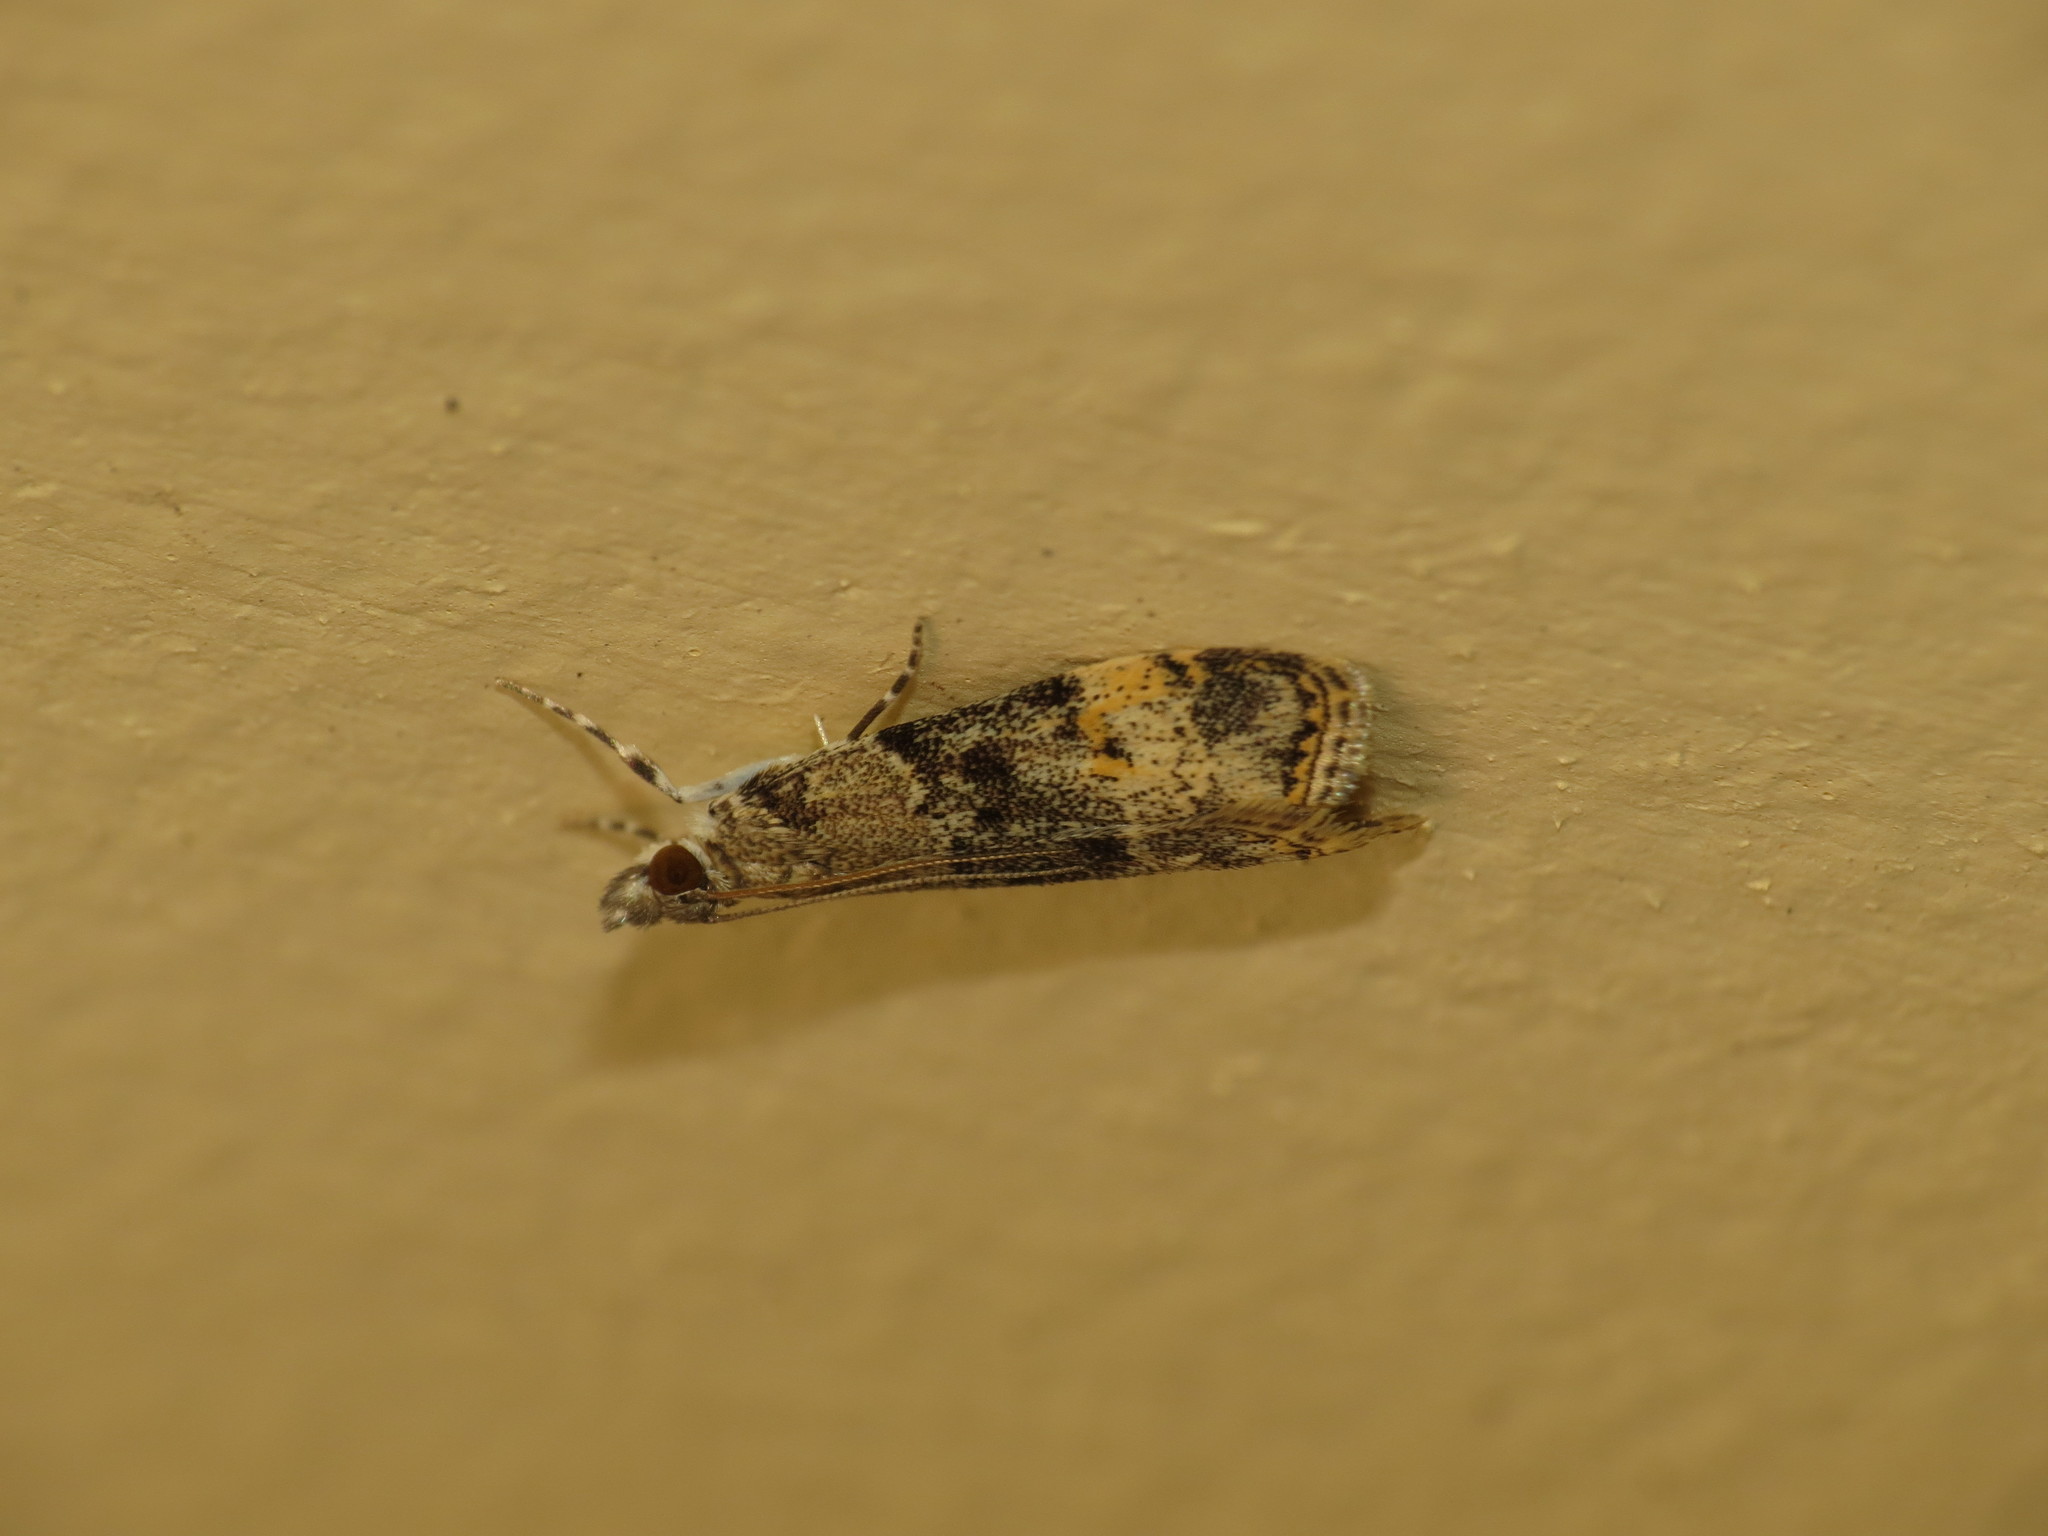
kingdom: Animalia
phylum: Arthropoda
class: Insecta
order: Lepidoptera
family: Crambidae
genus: Scoparia
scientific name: Scoparia eumeles
